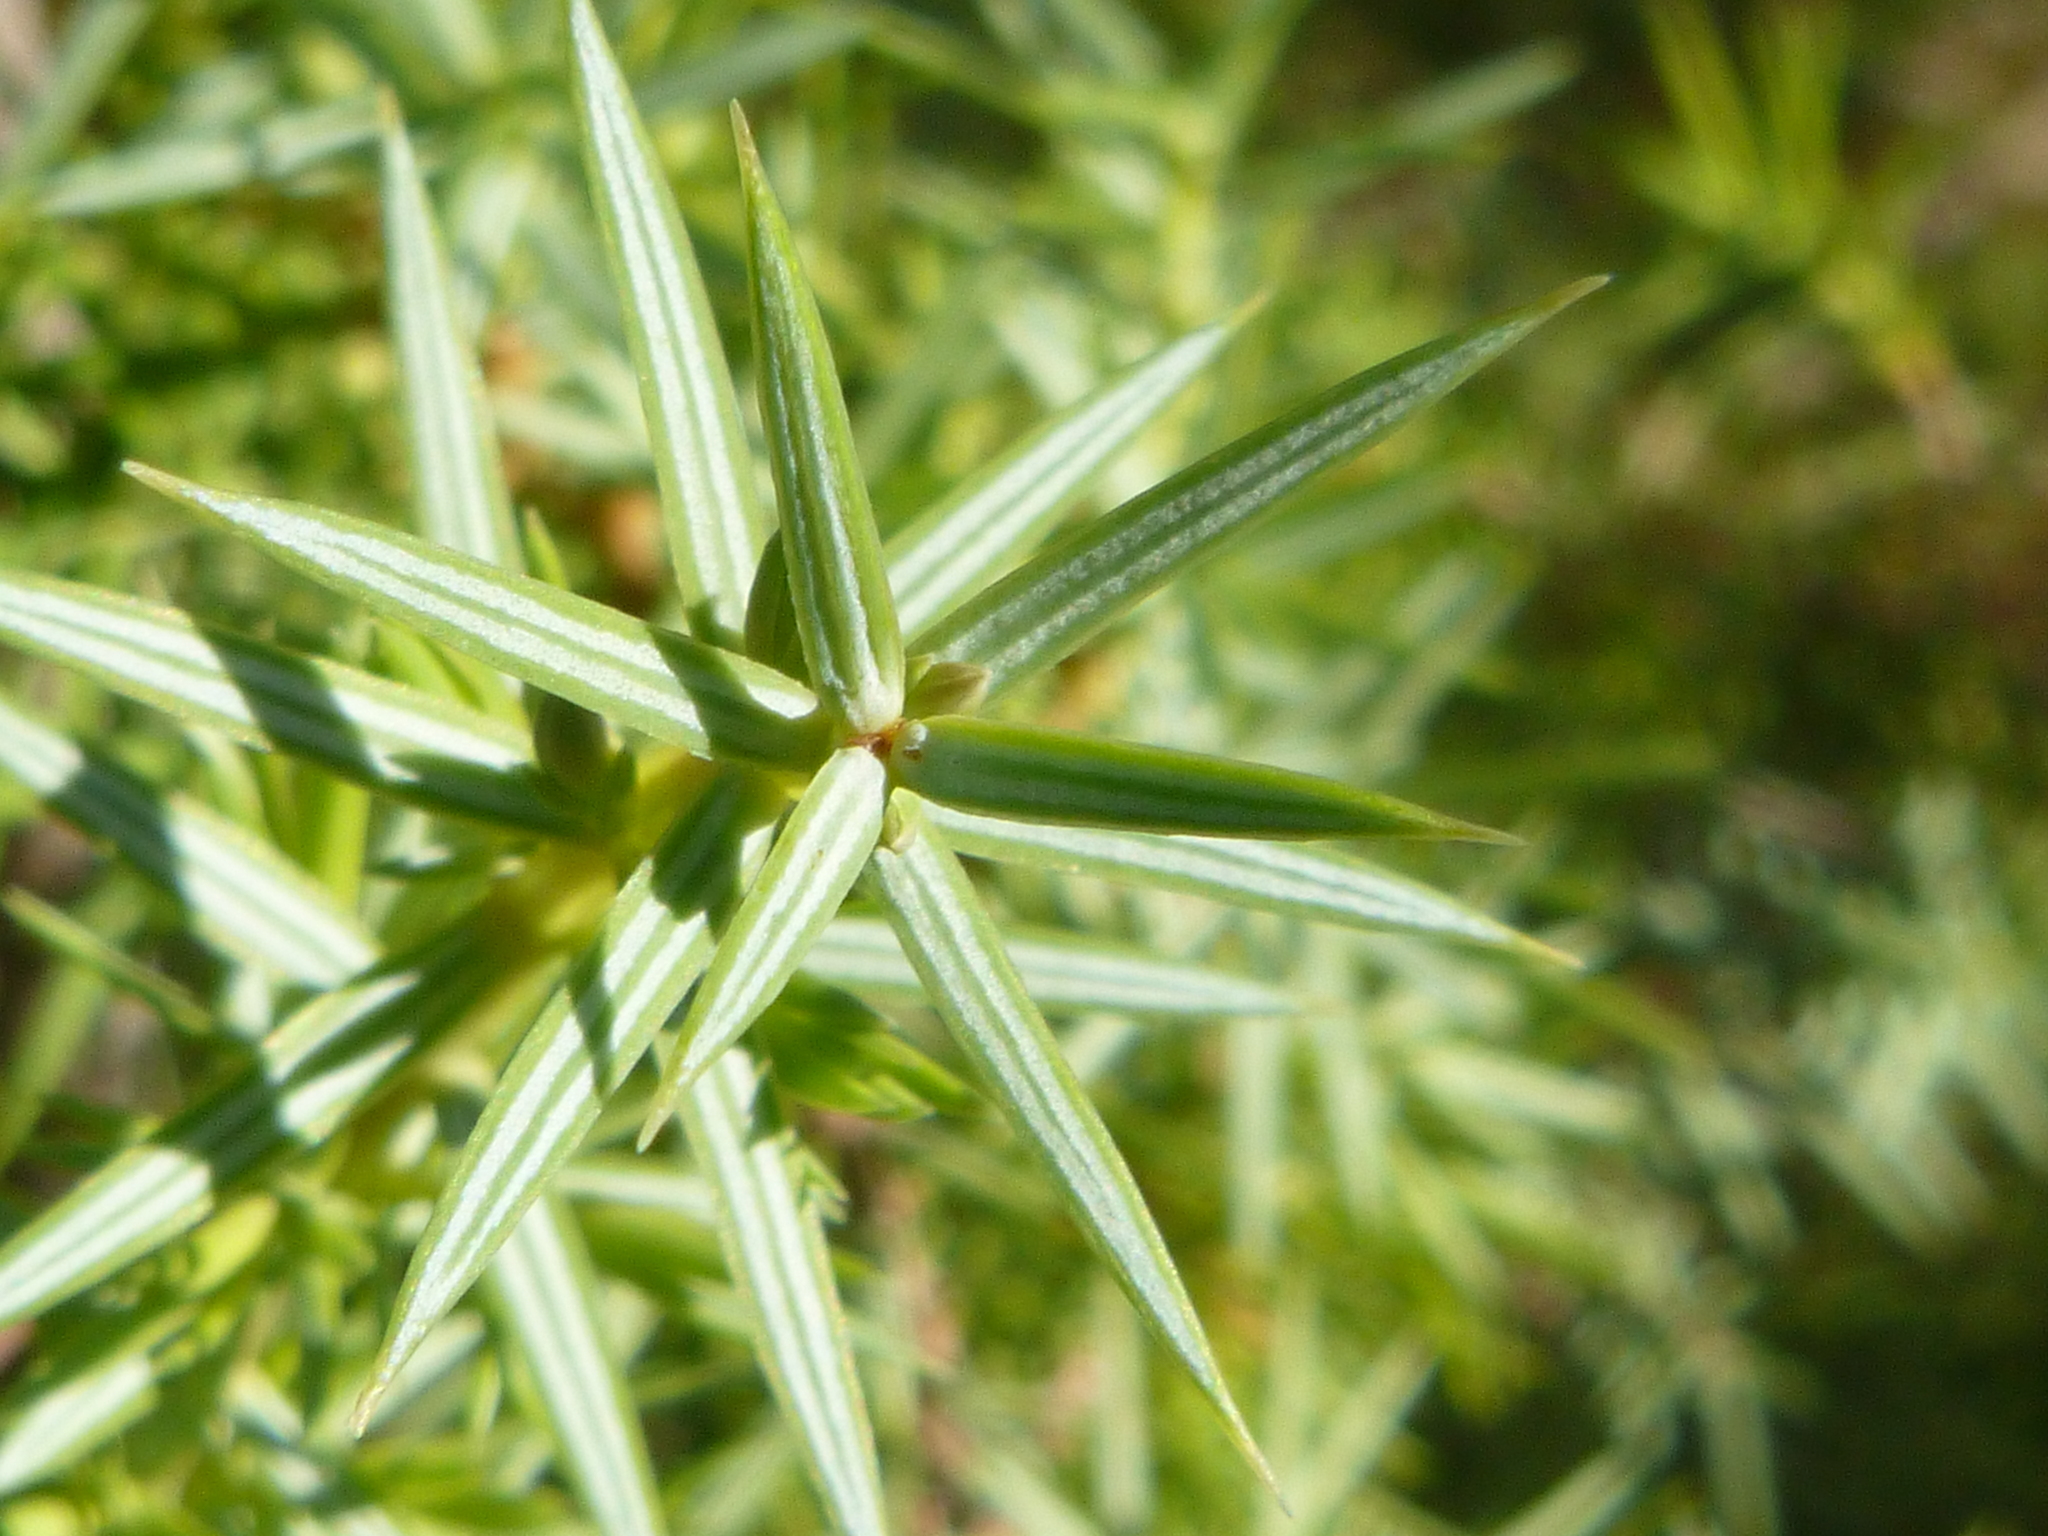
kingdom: Plantae
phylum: Tracheophyta
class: Pinopsida
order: Pinales
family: Cupressaceae
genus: Juniperus
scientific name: Juniperus oxycedrus
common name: Prickly juniper
